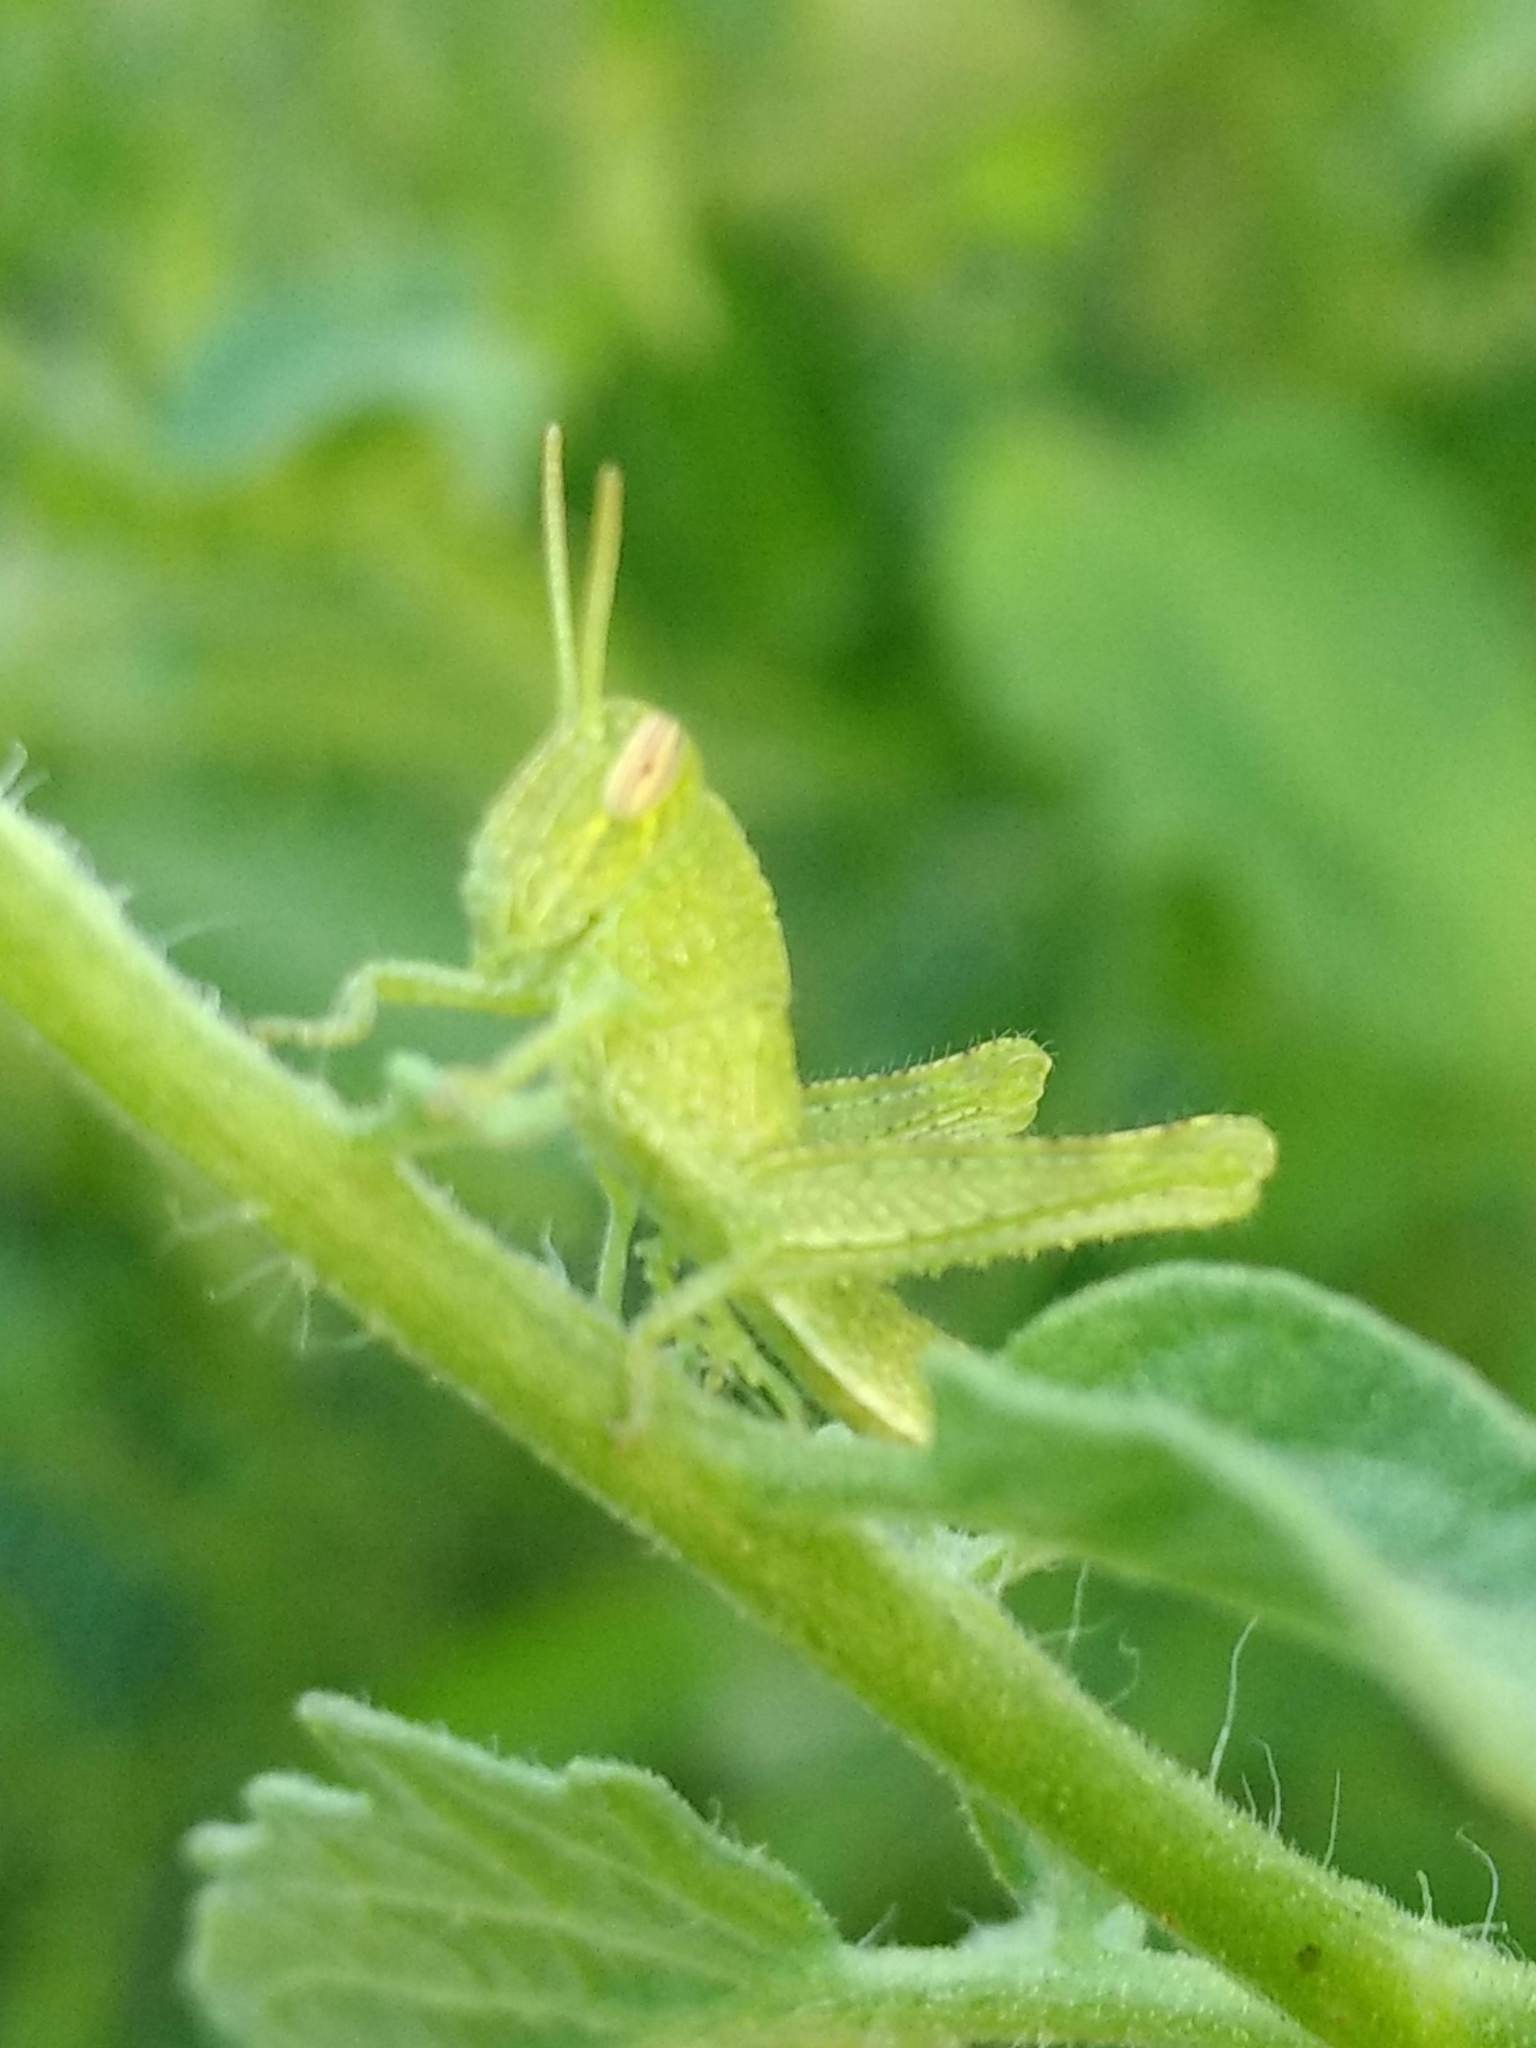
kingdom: Animalia
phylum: Arthropoda
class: Insecta
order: Orthoptera
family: Acrididae
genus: Schistocerca
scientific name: Schistocerca nitens
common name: Vagrant grasshopper
